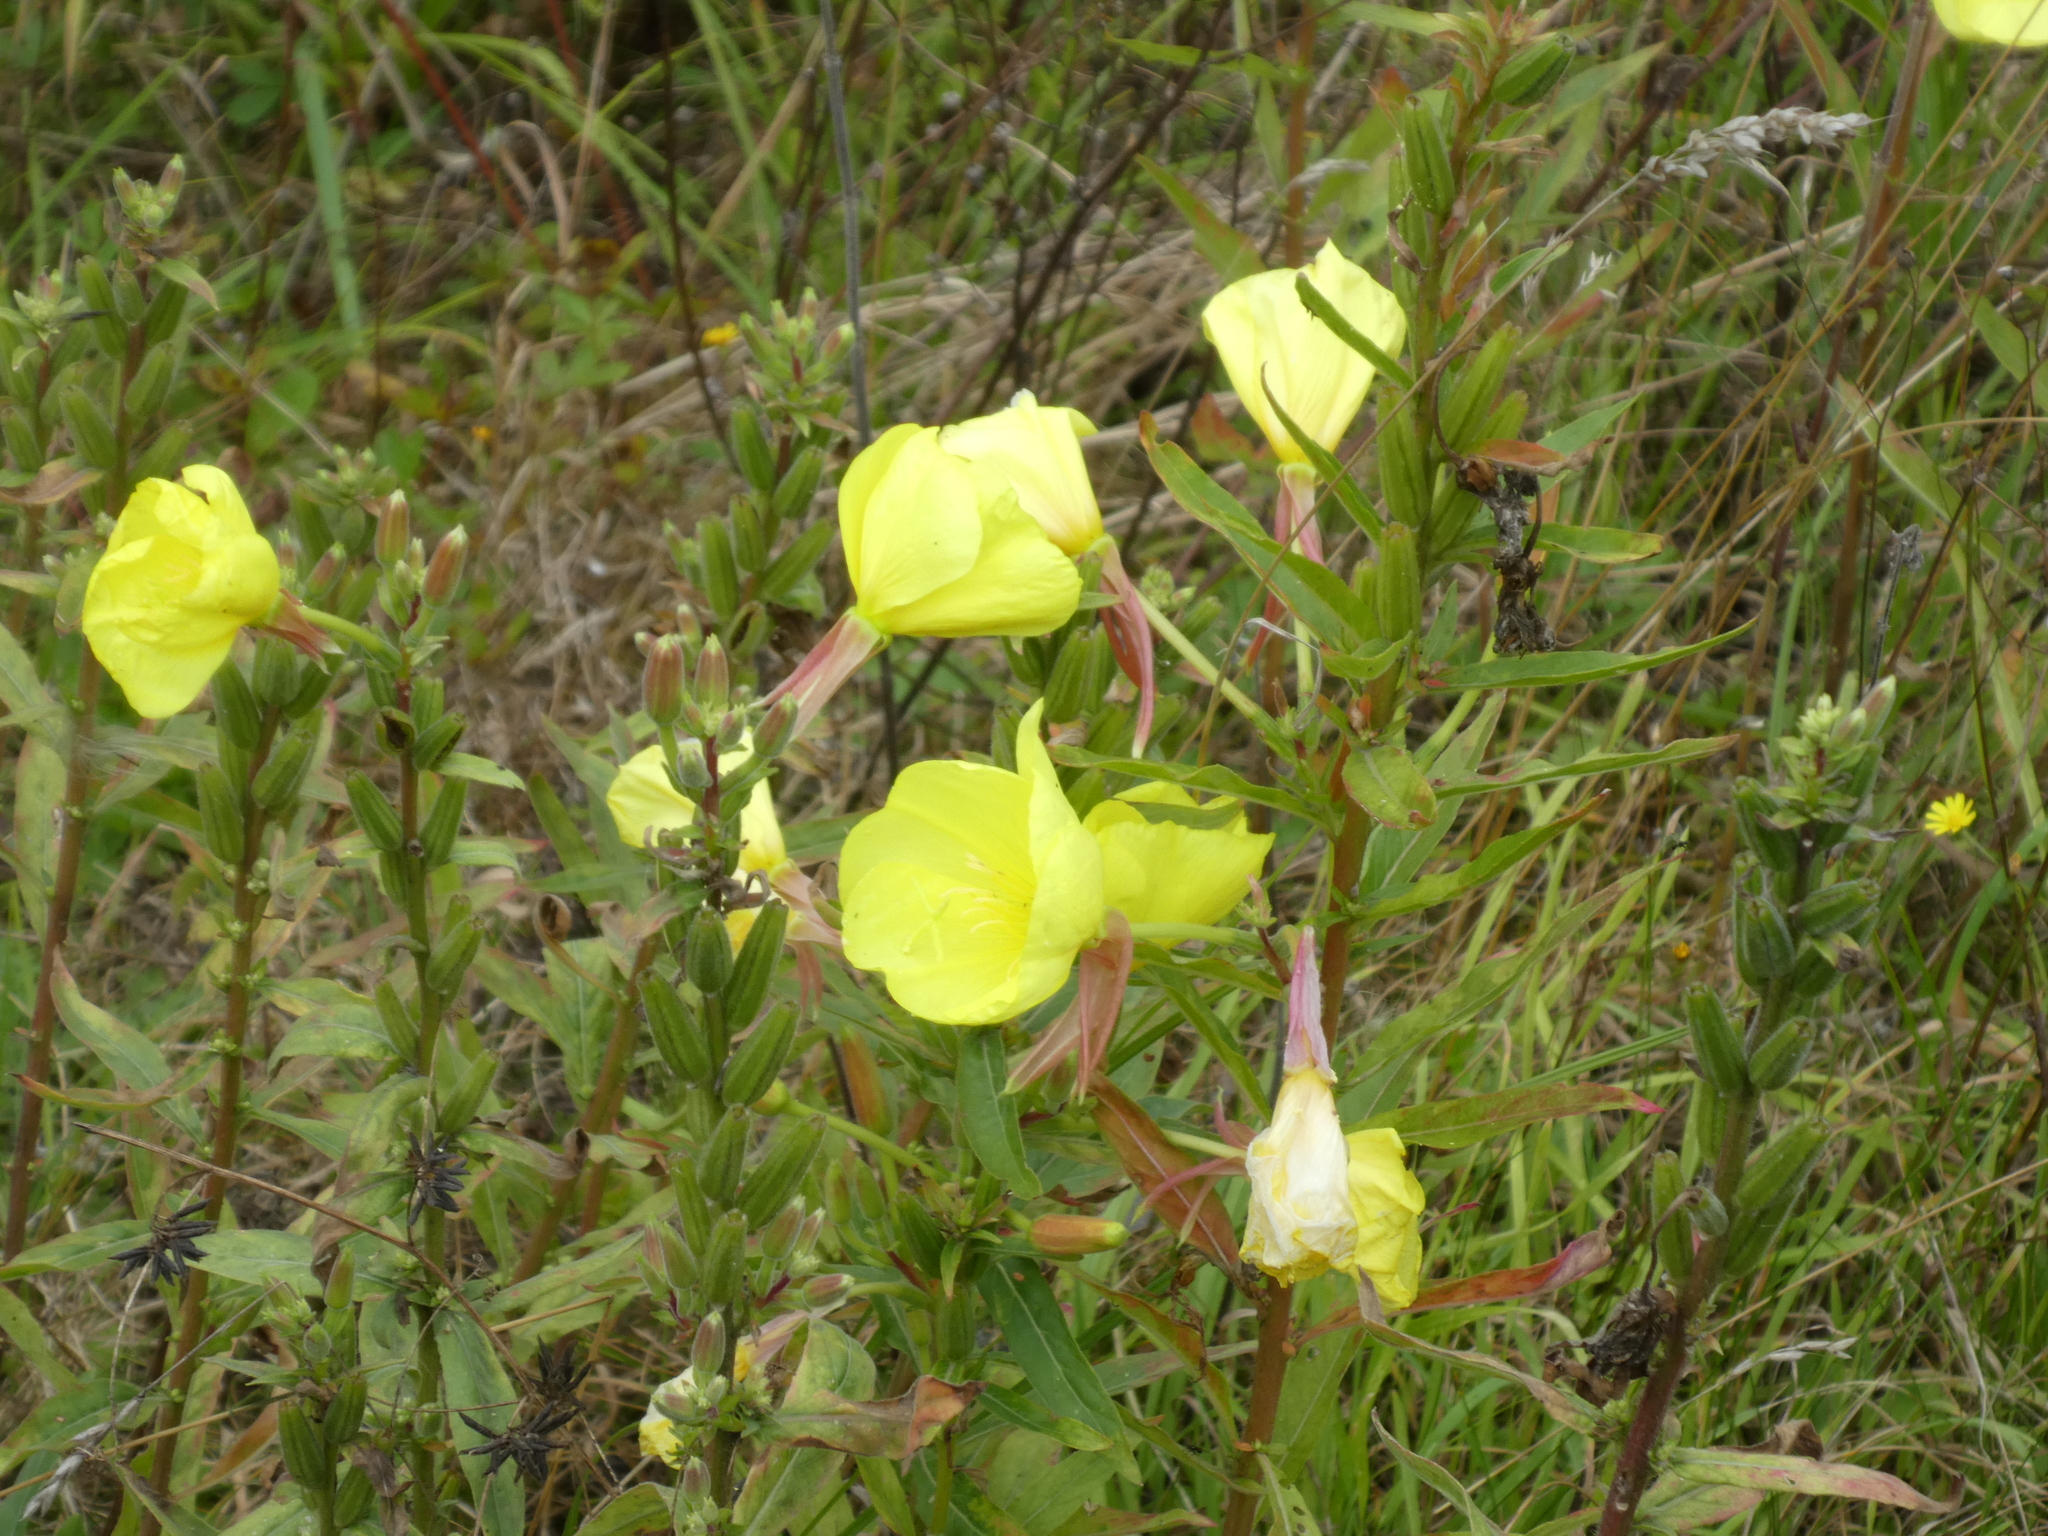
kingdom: Plantae
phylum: Tracheophyta
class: Magnoliopsida
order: Myrtales
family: Onagraceae
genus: Oenothera
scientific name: Oenothera glazioviana
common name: Large-flowered evening-primrose
